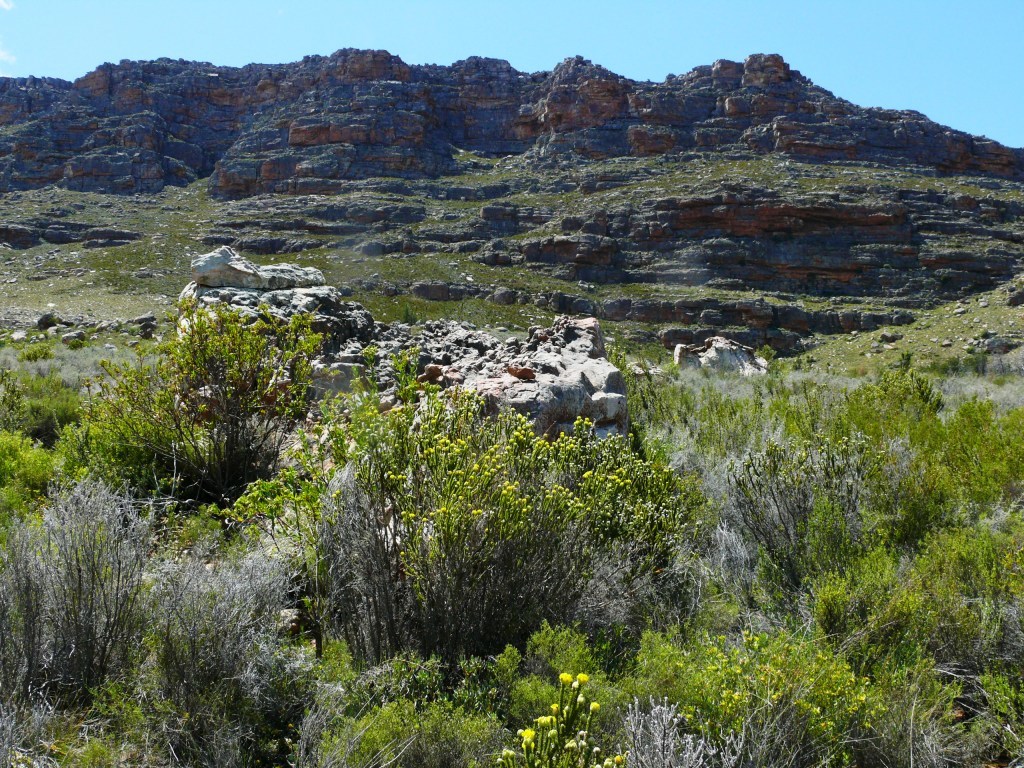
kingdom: Plantae
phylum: Tracheophyta
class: Magnoliopsida
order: Fabales
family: Fabaceae
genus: Aspalathus
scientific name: Aspalathus triquetra
